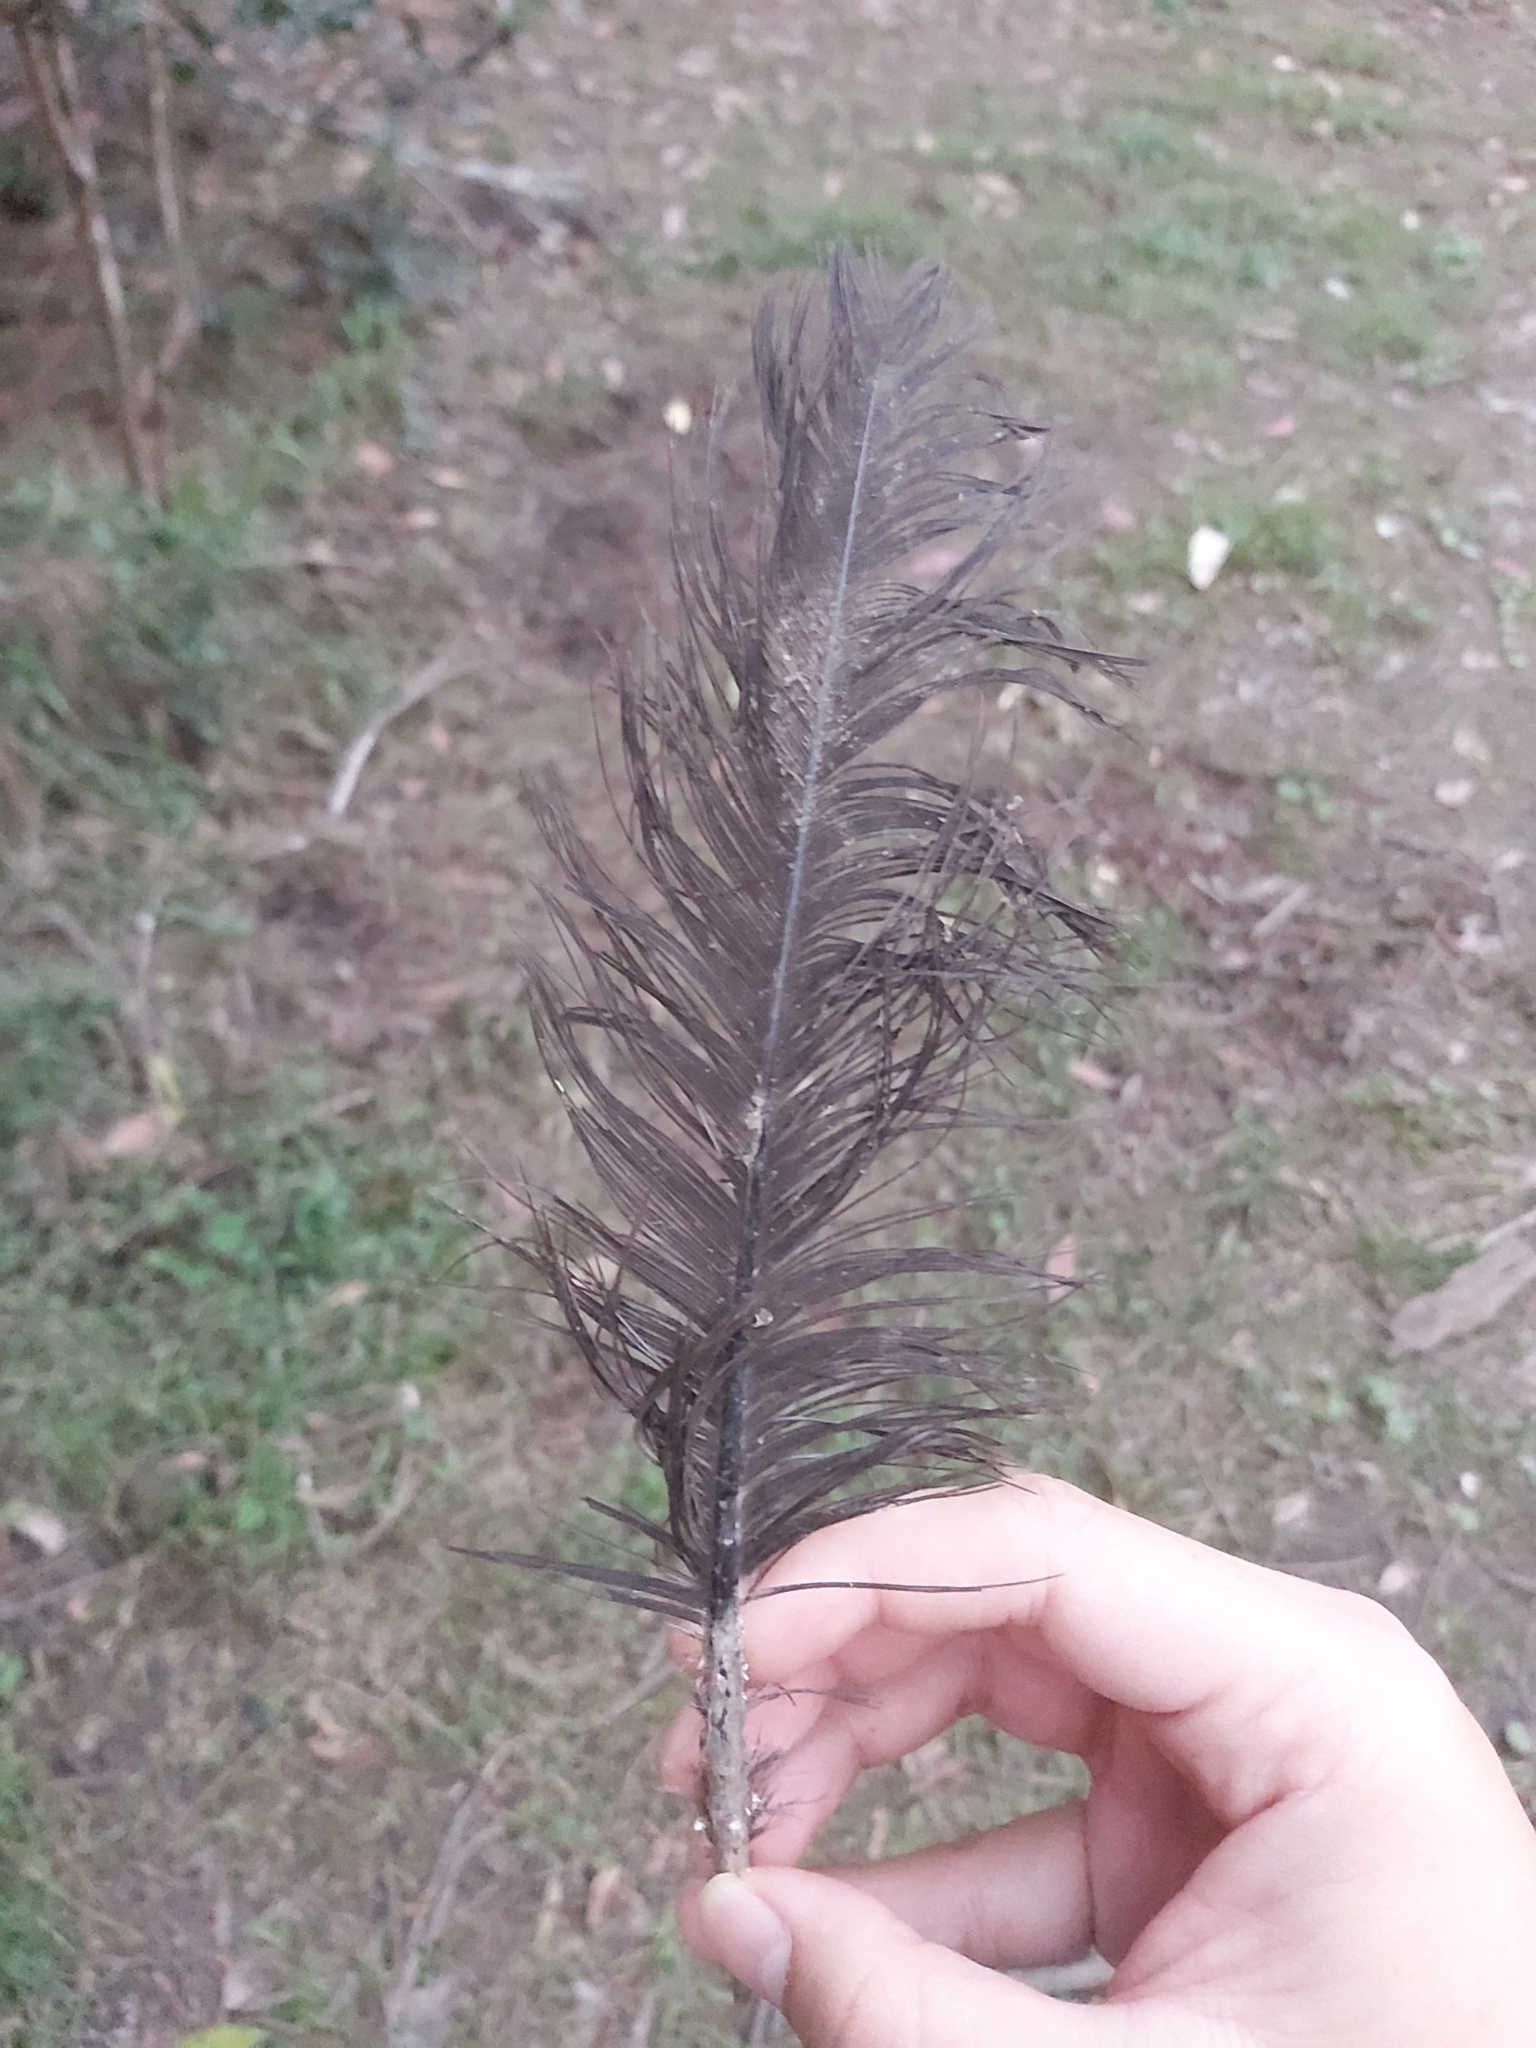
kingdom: Animalia
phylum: Chordata
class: Aves
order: Galliformes
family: Megapodiidae
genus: Alectura
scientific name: Alectura lathami
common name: Australian brushturkey
